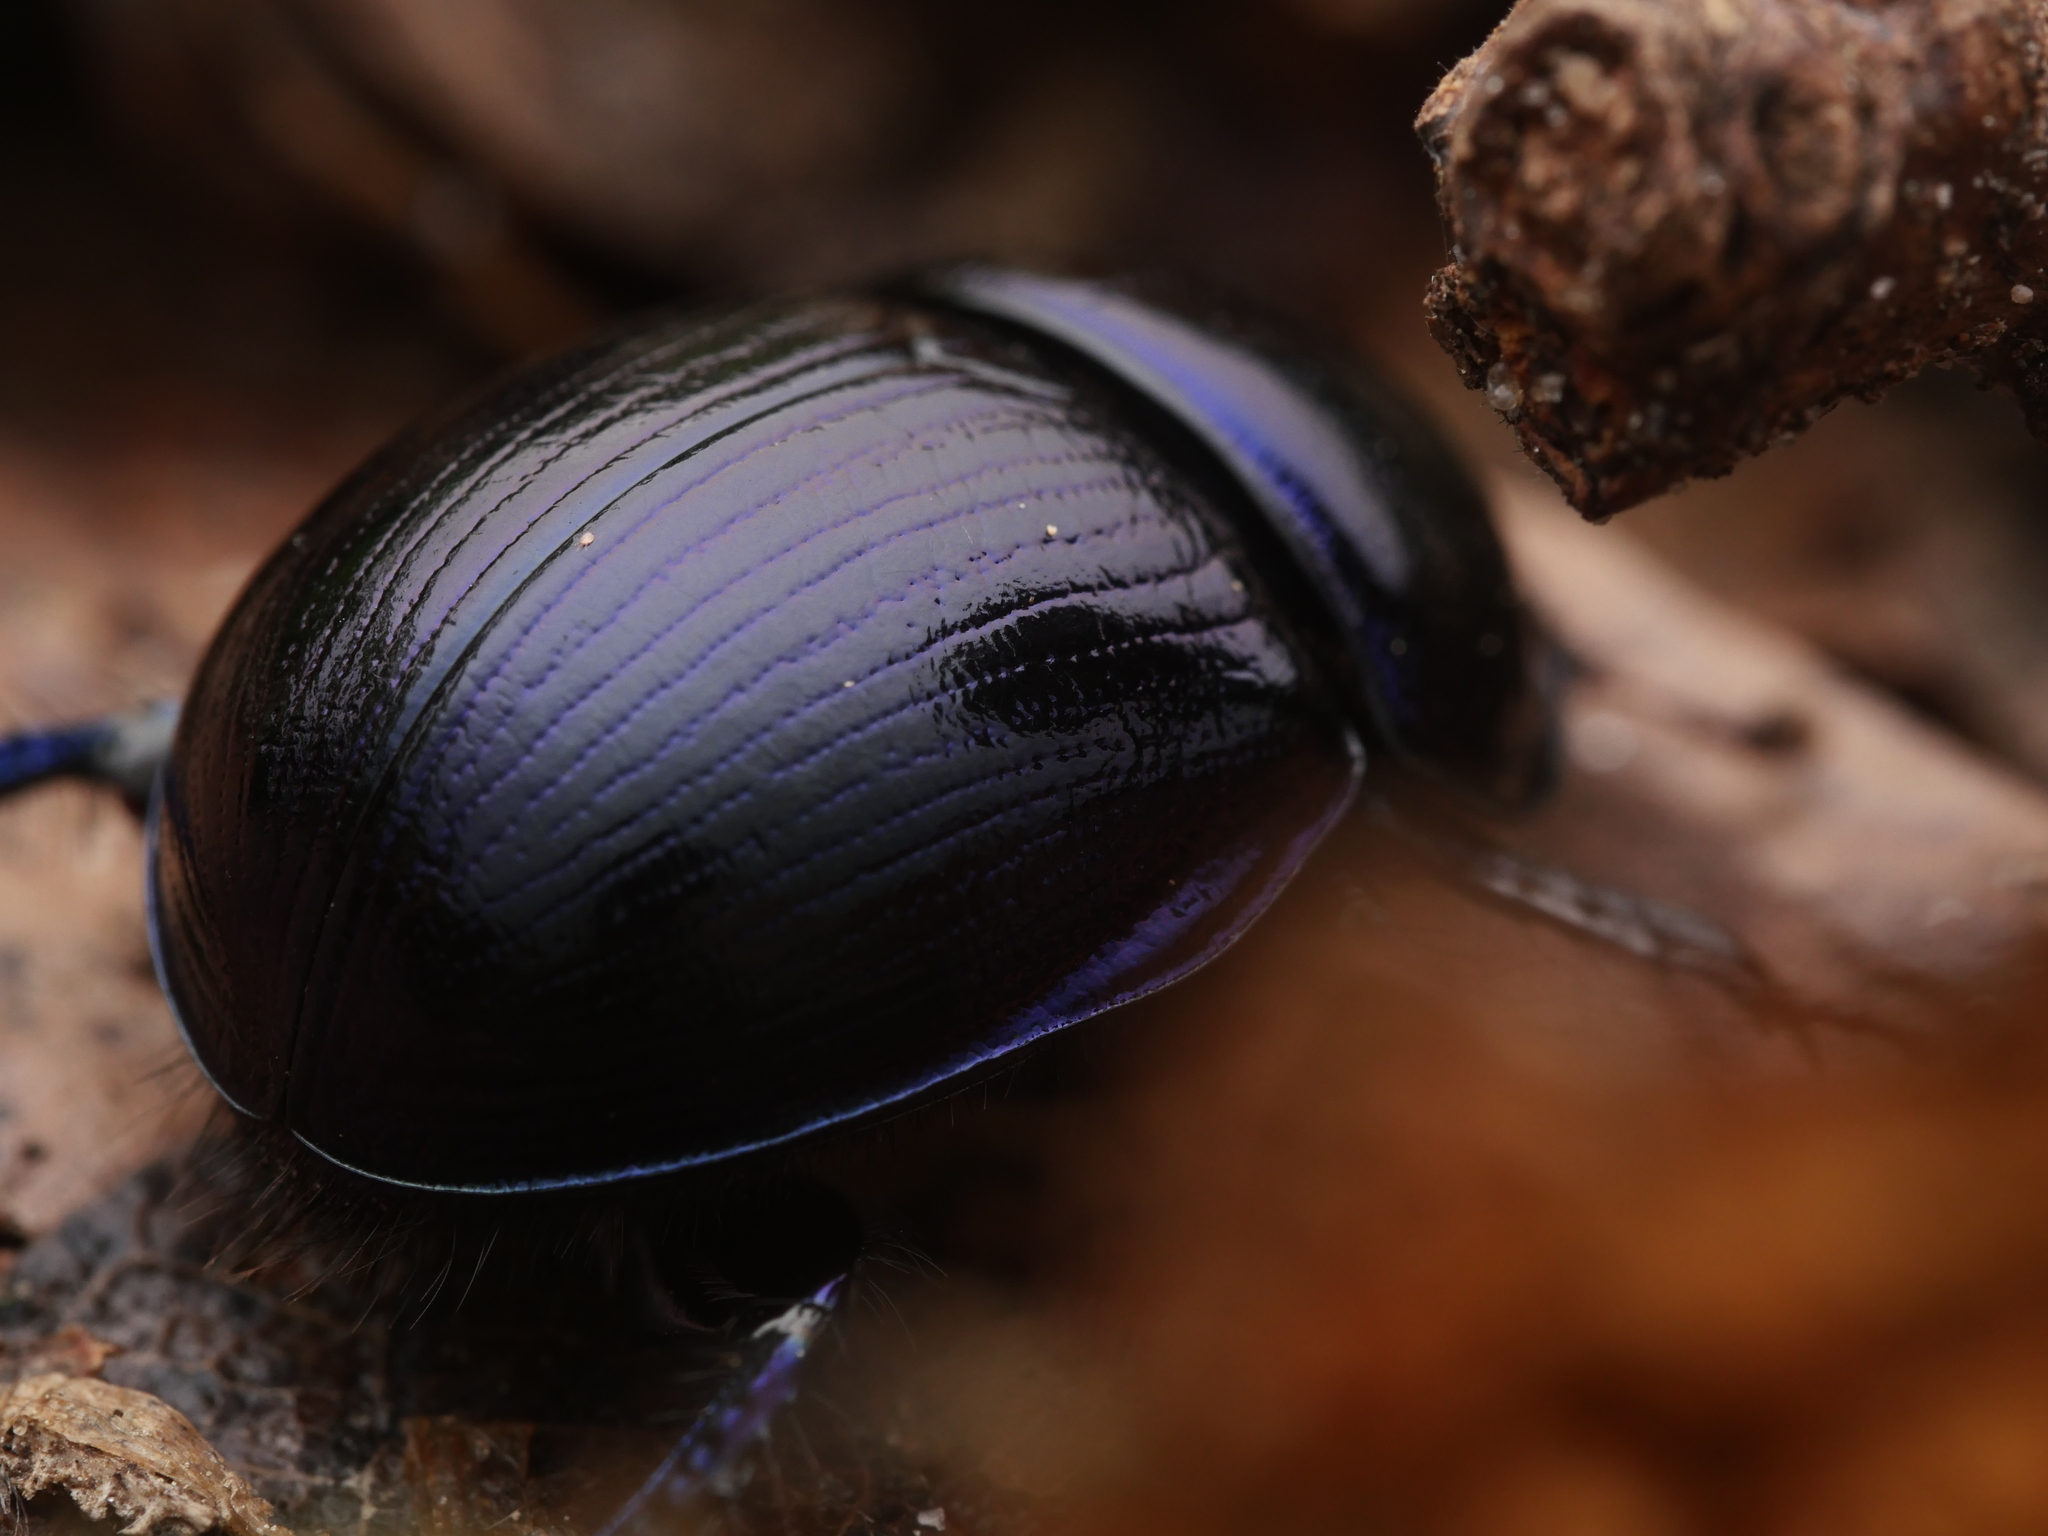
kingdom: Animalia
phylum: Arthropoda
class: Insecta
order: Coleoptera
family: Geotrupidae
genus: Anoplotrupes
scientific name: Anoplotrupes stercorosus
